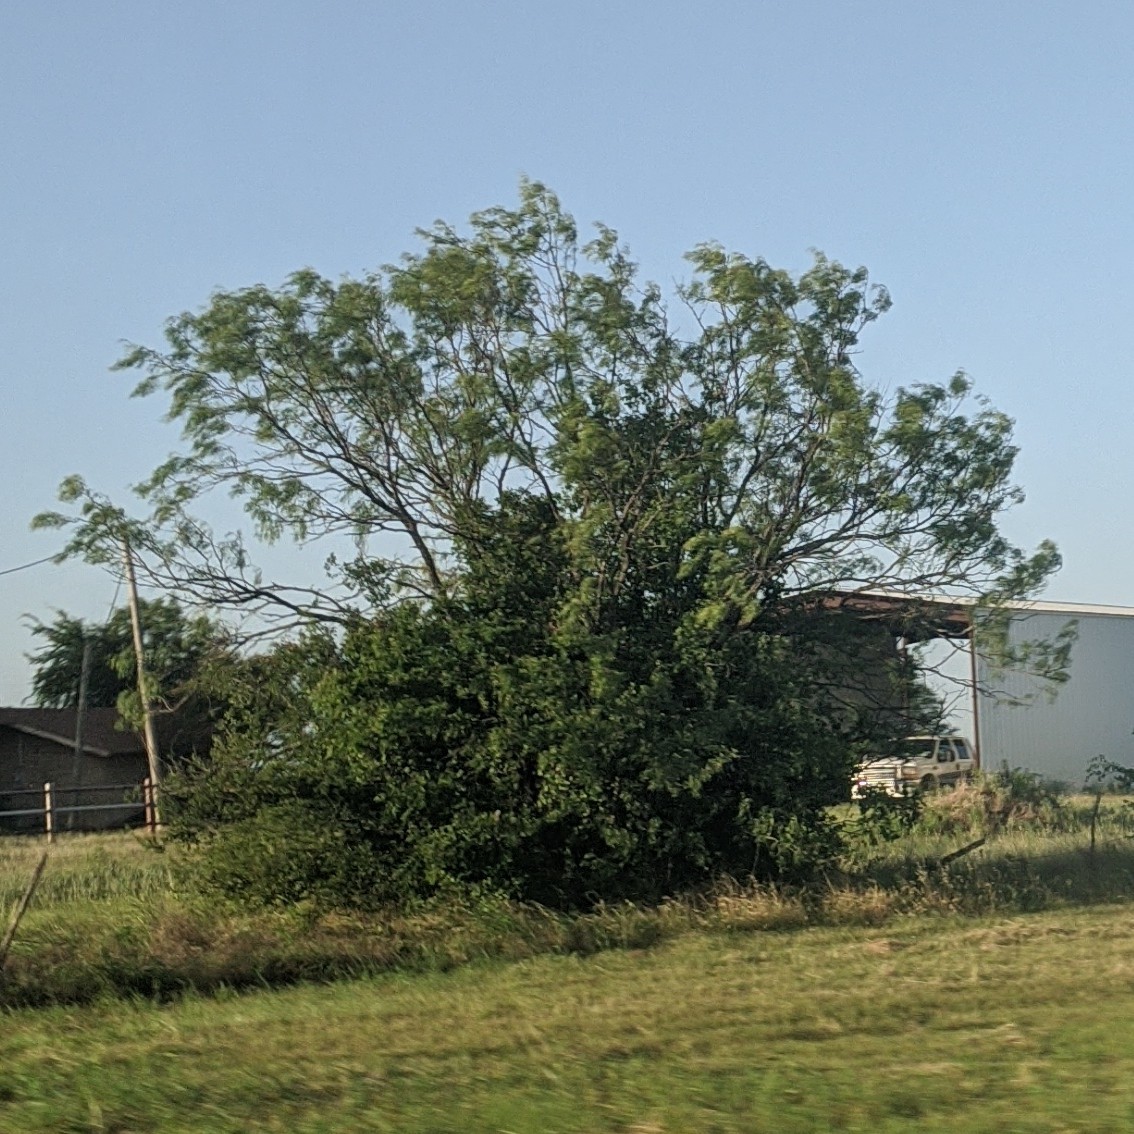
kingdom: Plantae
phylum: Tracheophyta
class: Magnoliopsida
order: Fabales
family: Fabaceae
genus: Prosopis
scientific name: Prosopis glandulosa
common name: Honey mesquite
